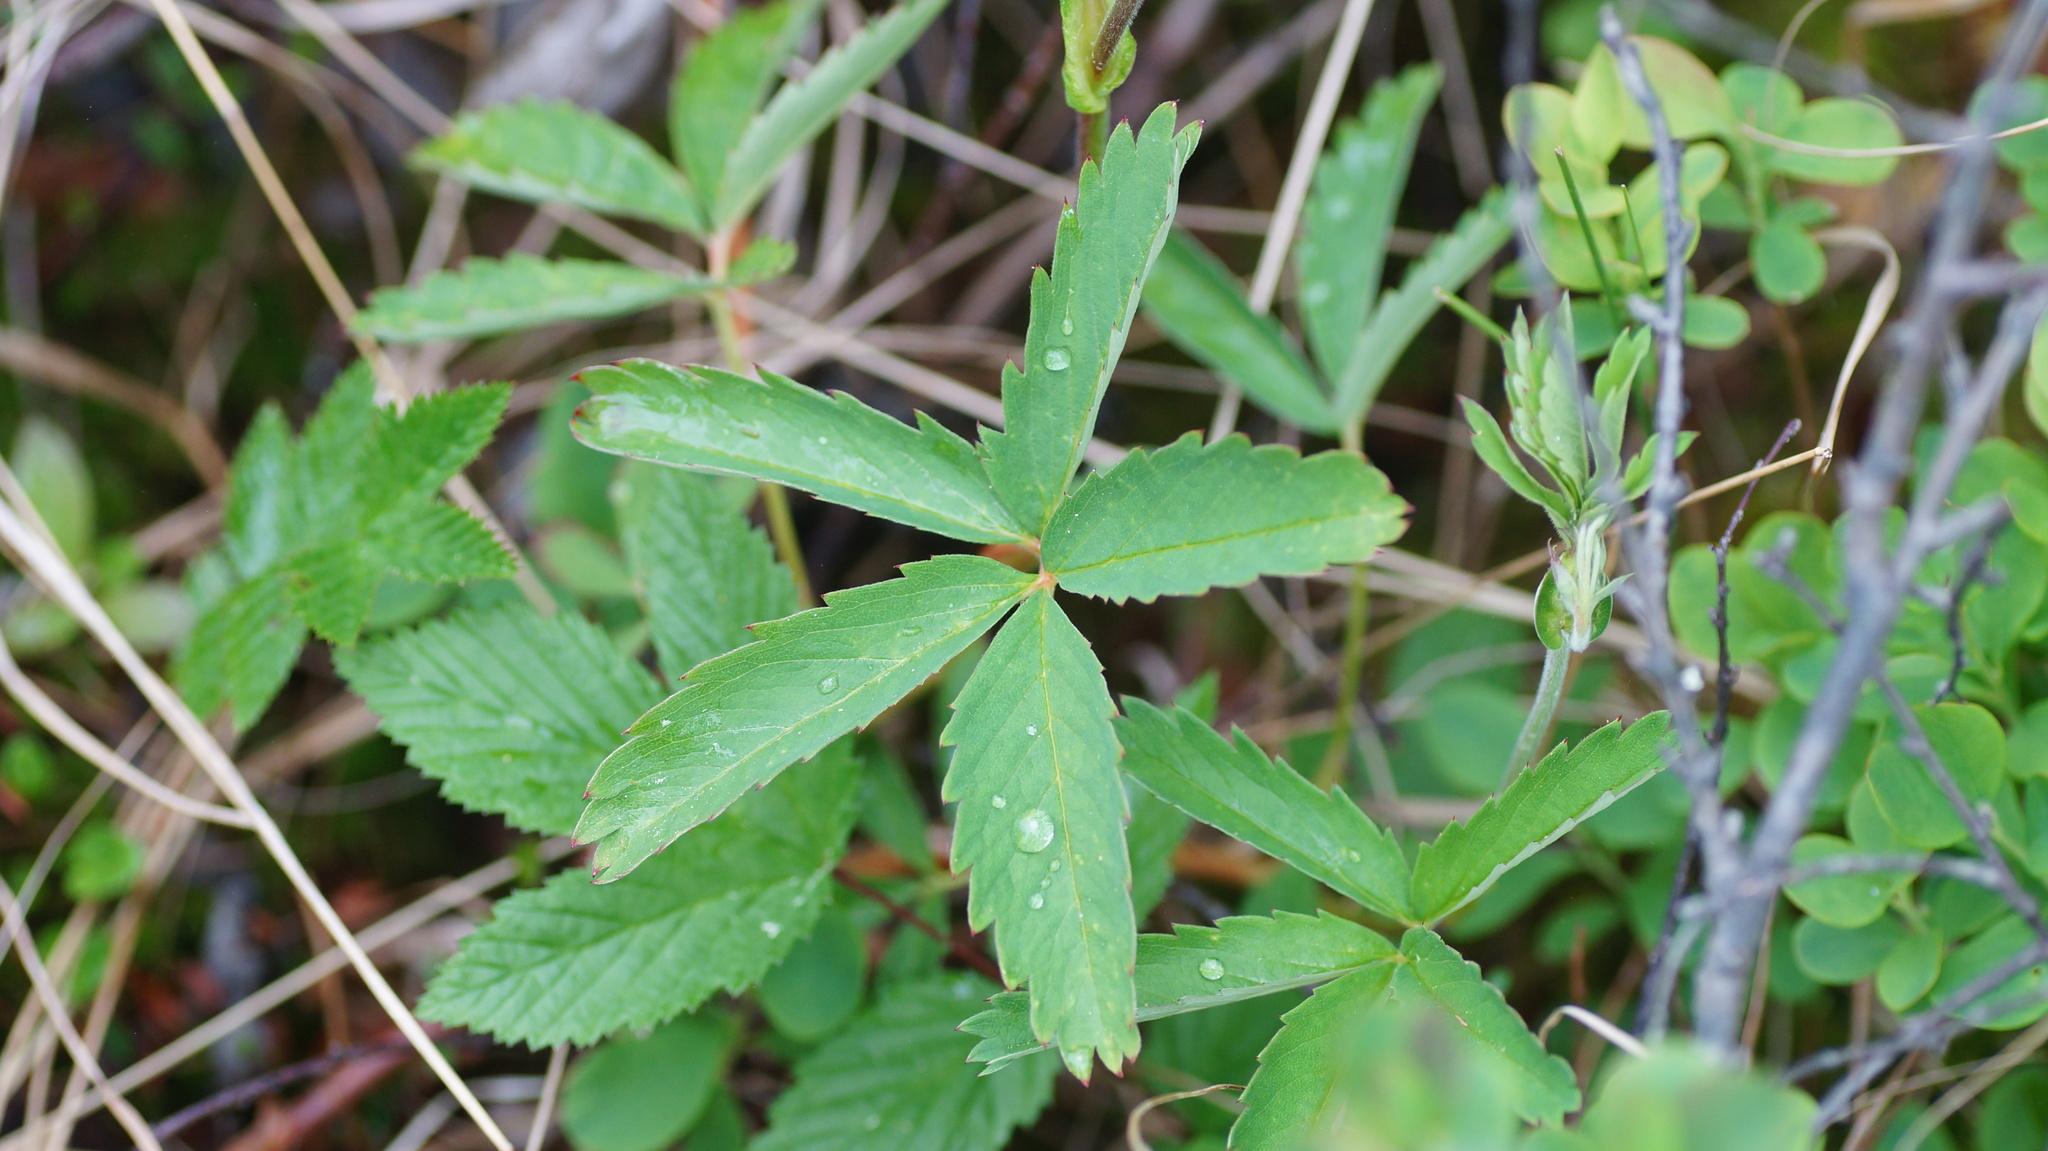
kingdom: Plantae
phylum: Tracheophyta
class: Magnoliopsida
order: Rosales
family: Rosaceae
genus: Comarum
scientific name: Comarum palustre
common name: Marsh cinquefoil
